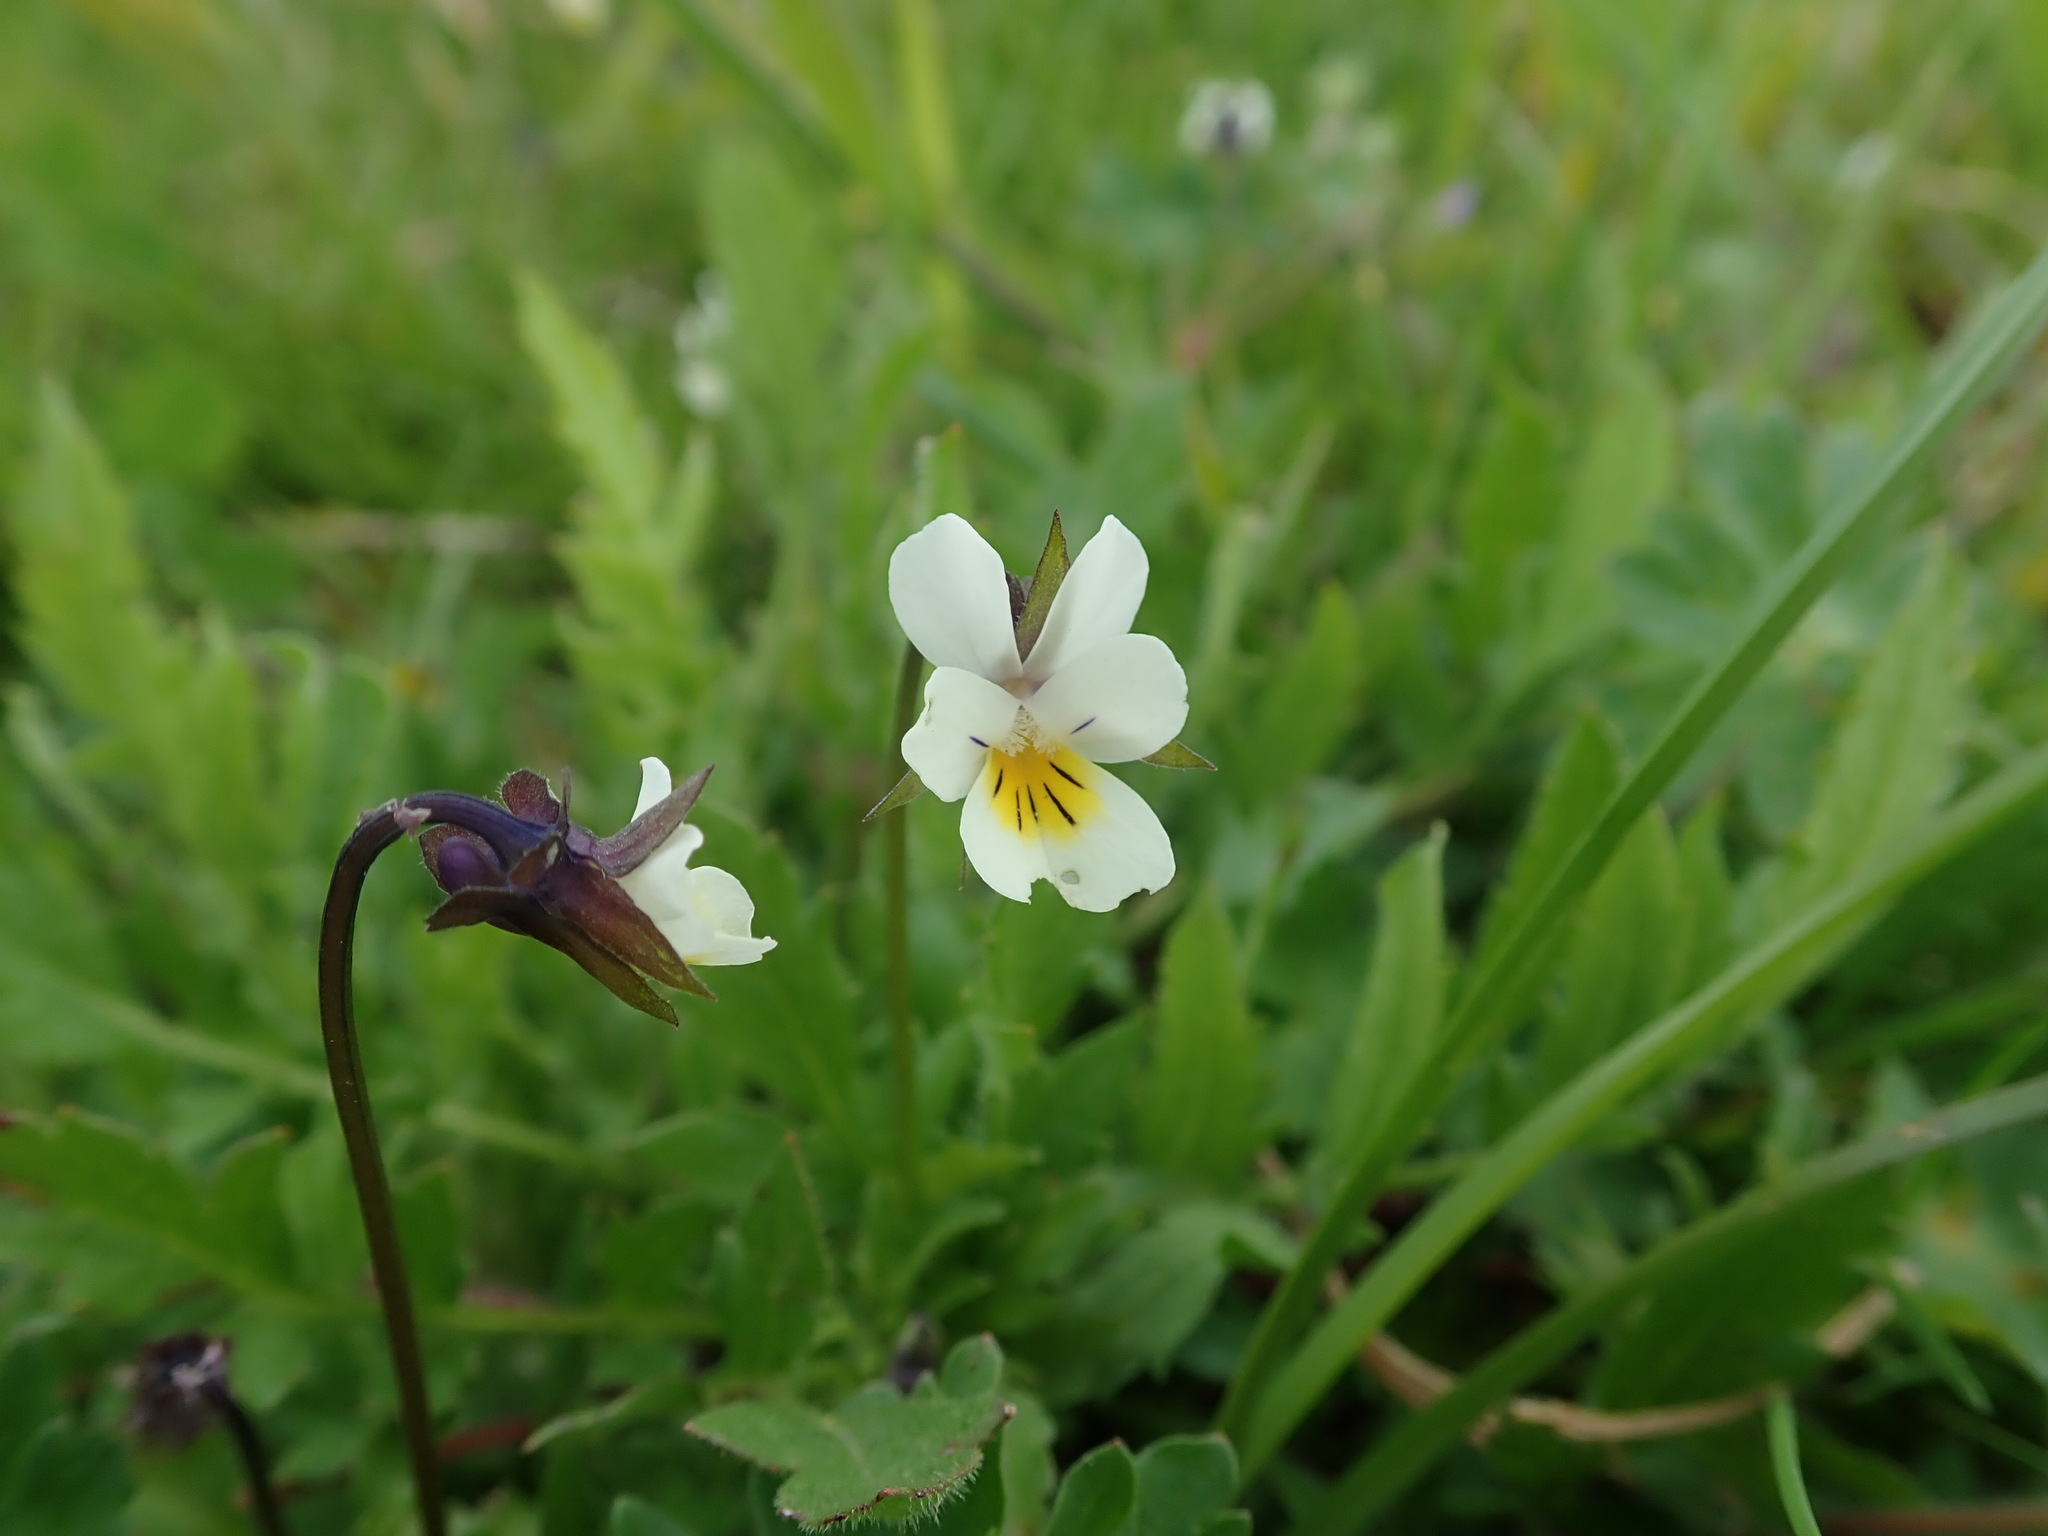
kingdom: Plantae
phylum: Tracheophyta
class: Magnoliopsida
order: Malpighiales
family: Violaceae
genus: Viola
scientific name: Viola arvensis
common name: Field pansy
